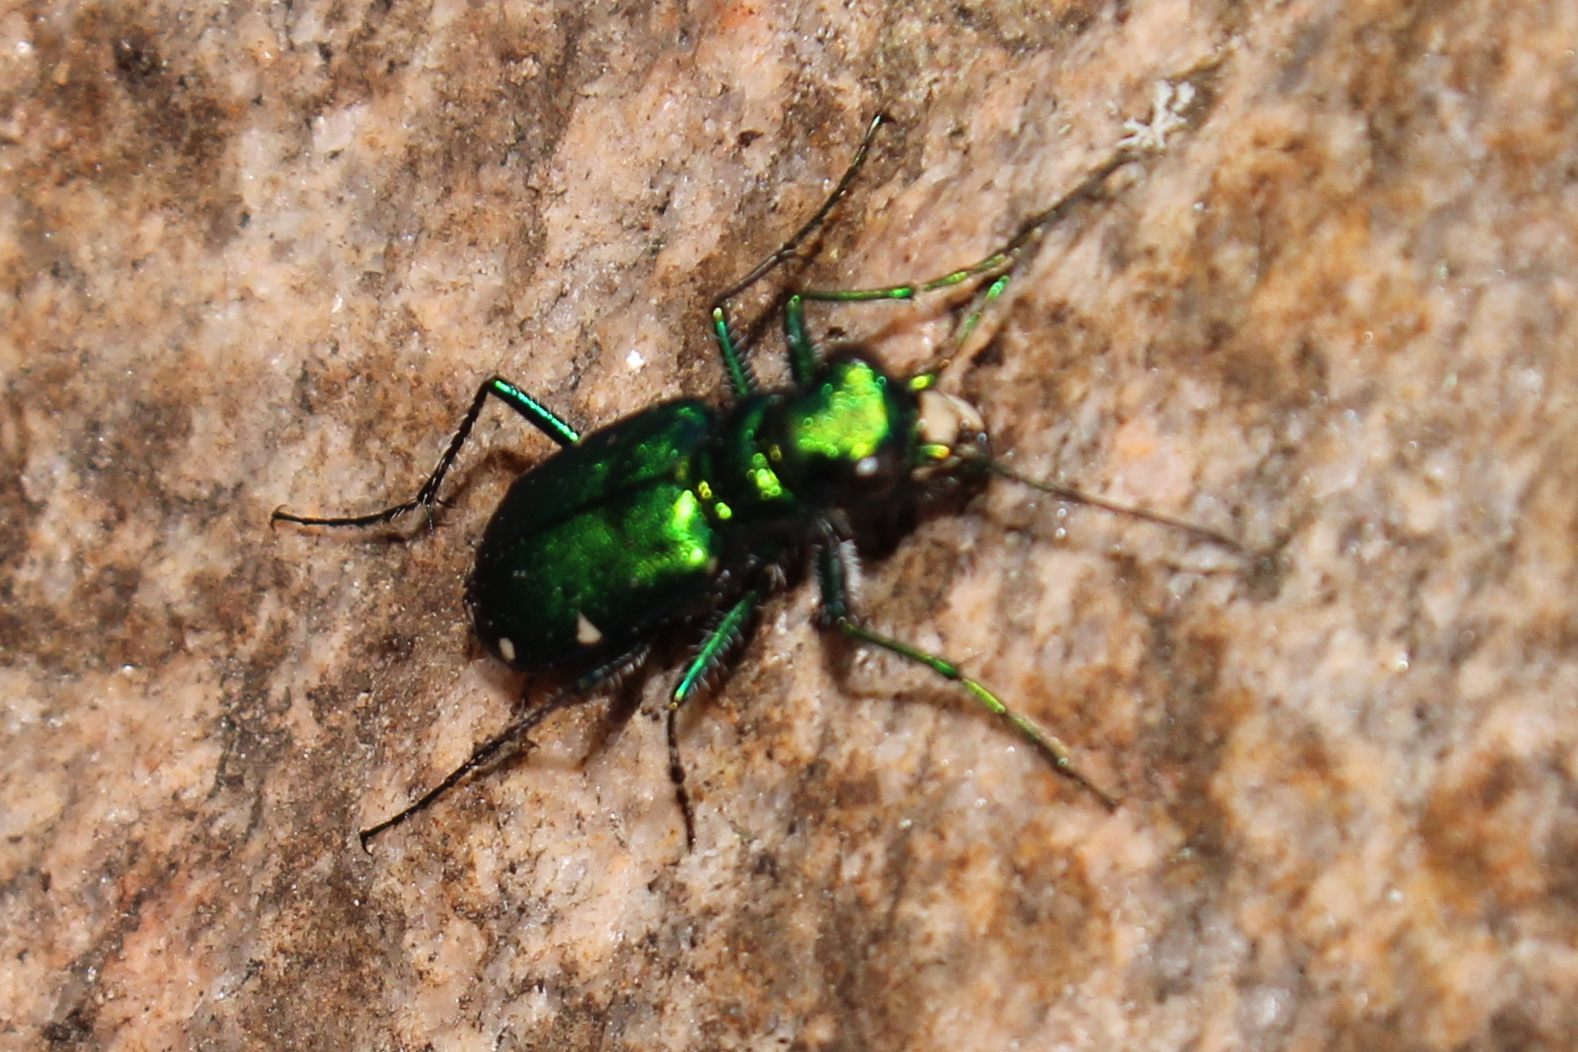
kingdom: Animalia
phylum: Arthropoda
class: Insecta
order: Coleoptera
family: Carabidae
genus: Cicindela
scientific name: Cicindela sexguttata
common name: Six-spotted tiger beetle
